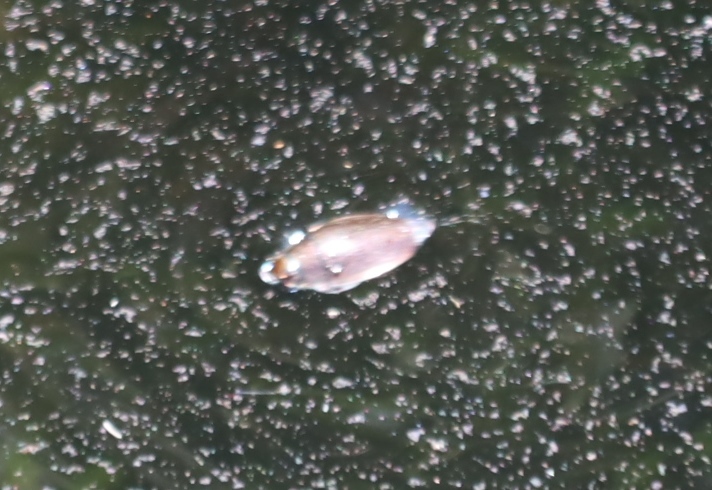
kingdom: Animalia
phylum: Arthropoda
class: Insecta
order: Coleoptera
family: Gyrinidae
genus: Dineutus
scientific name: Dineutus
